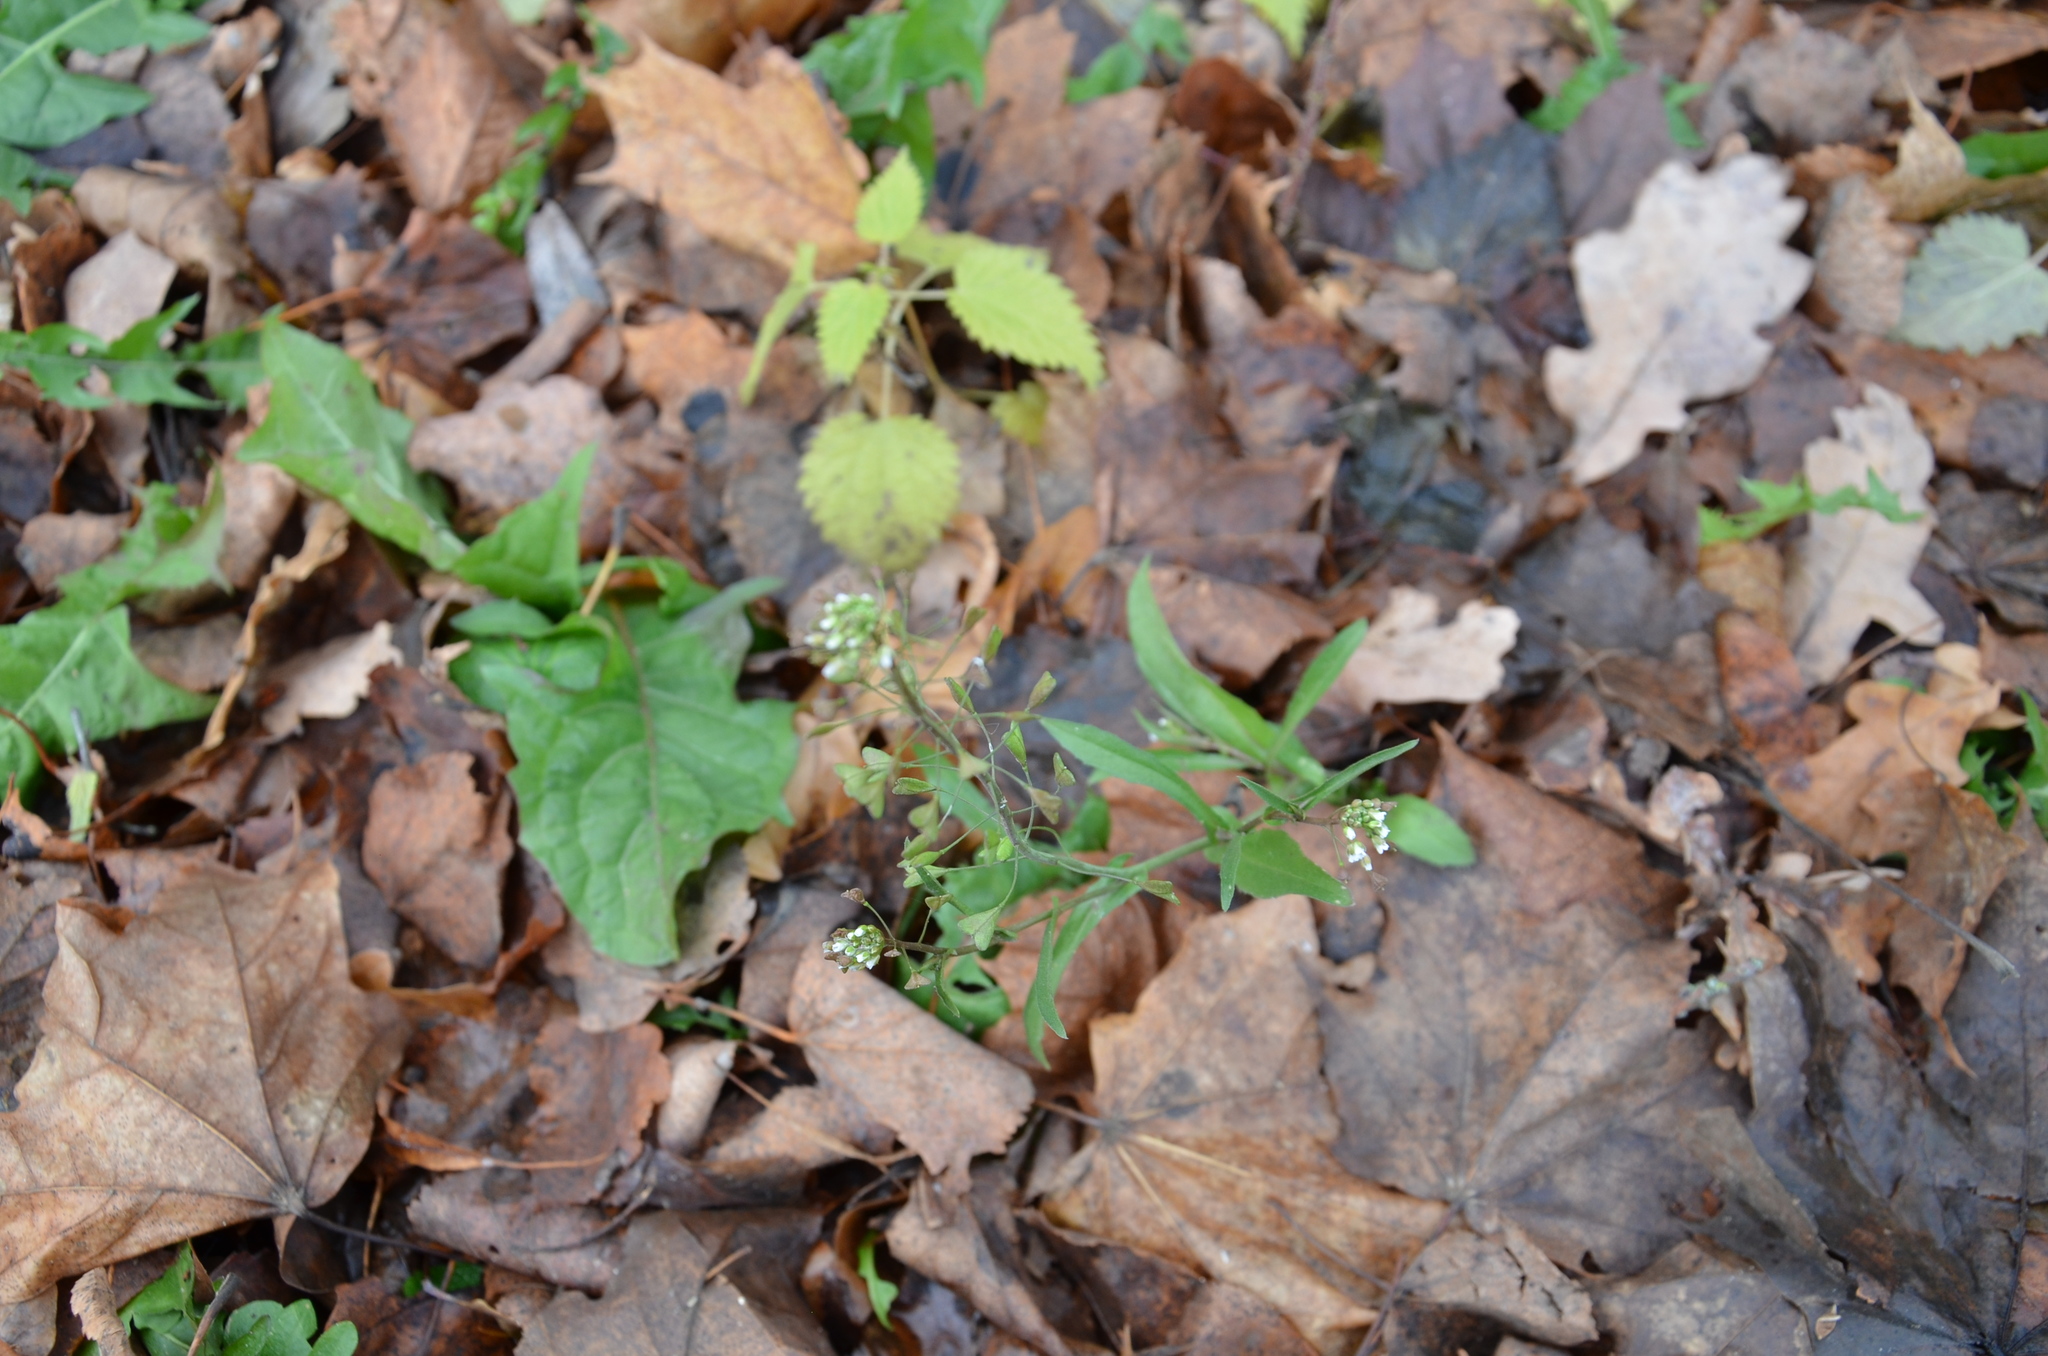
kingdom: Plantae
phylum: Tracheophyta
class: Magnoliopsida
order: Brassicales
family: Brassicaceae
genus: Capsella
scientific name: Capsella bursa-pastoris
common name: Shepherd's purse
